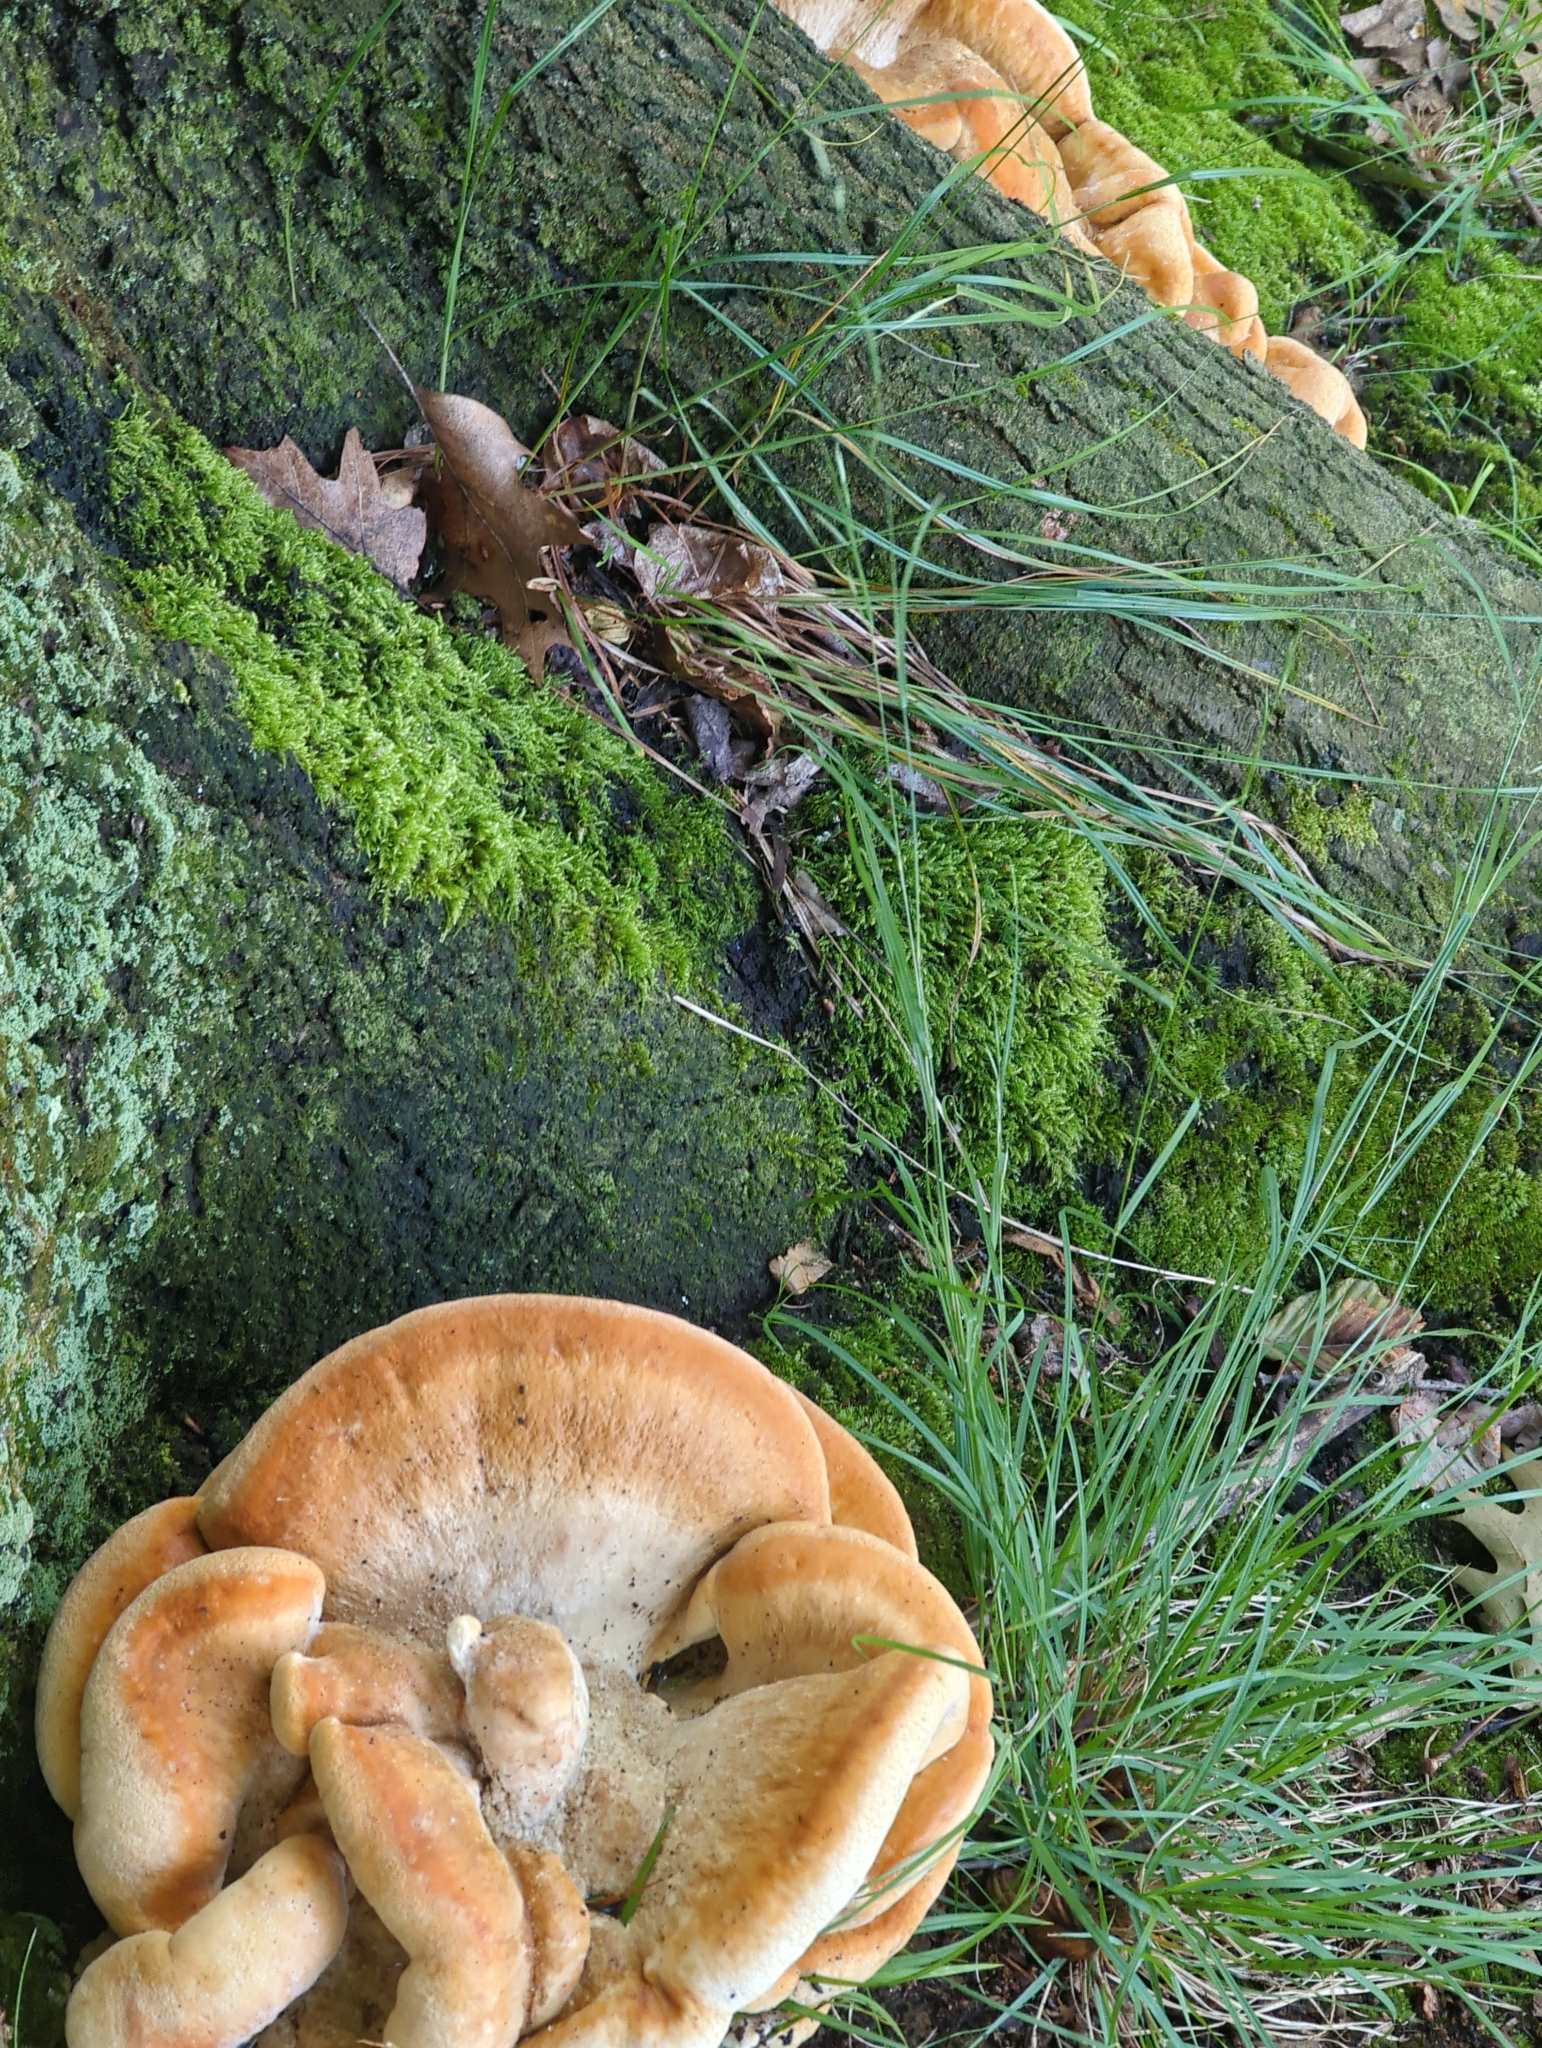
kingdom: Fungi
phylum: Basidiomycota
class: Agaricomycetes
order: Russulales
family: Bondarzewiaceae
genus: Bondarzewia
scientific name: Bondarzewia berkeleyi
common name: Berkeley's polypore
